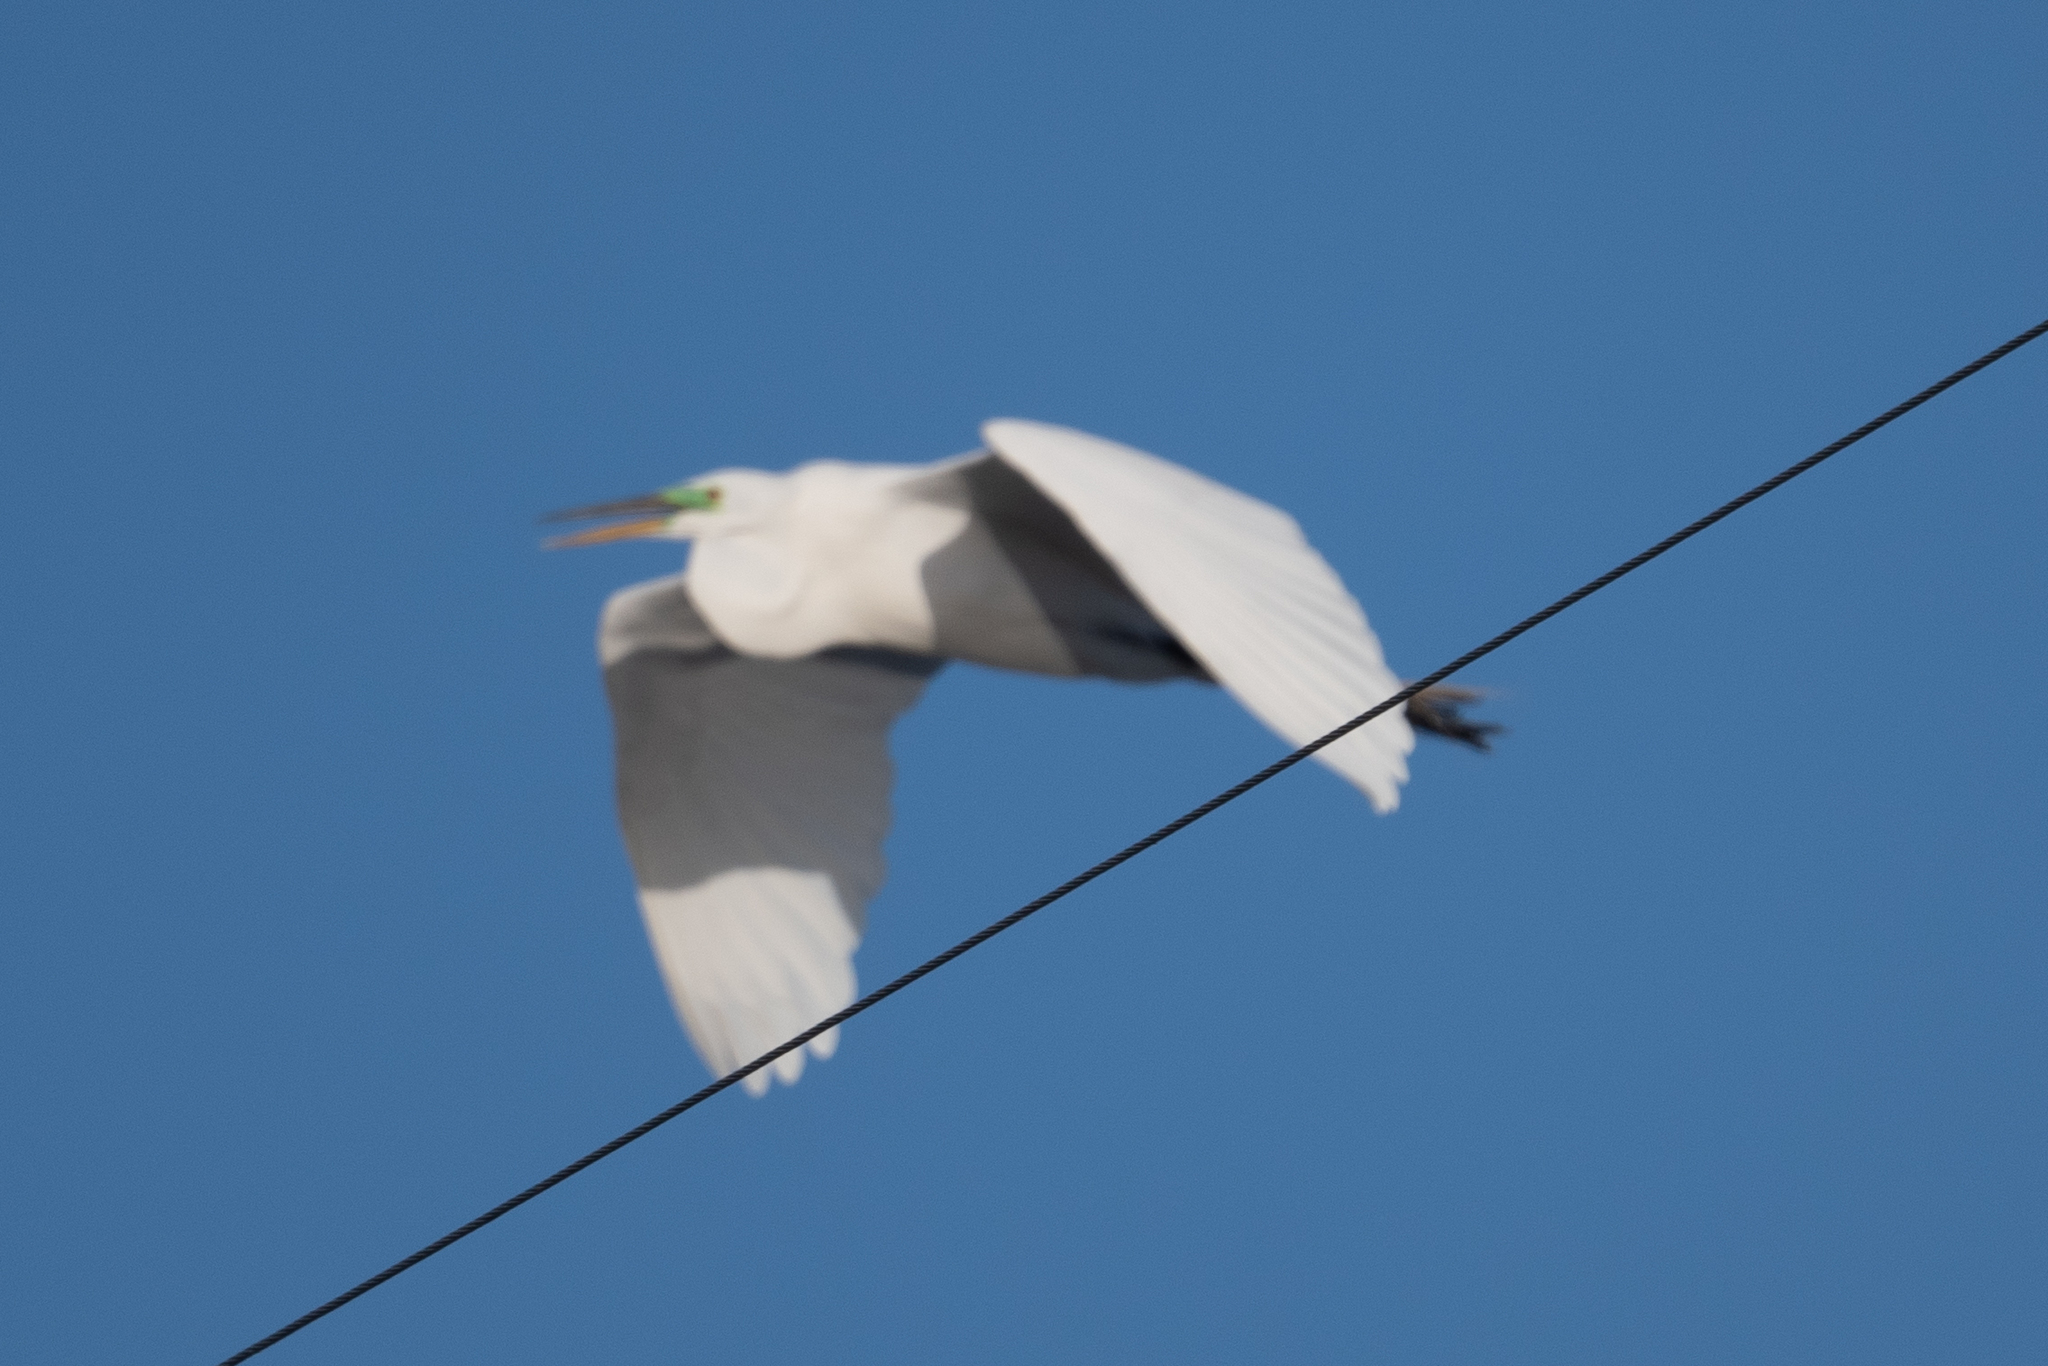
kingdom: Animalia
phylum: Chordata
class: Aves
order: Pelecaniformes
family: Ardeidae
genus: Ardea
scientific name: Ardea alba
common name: Great egret
